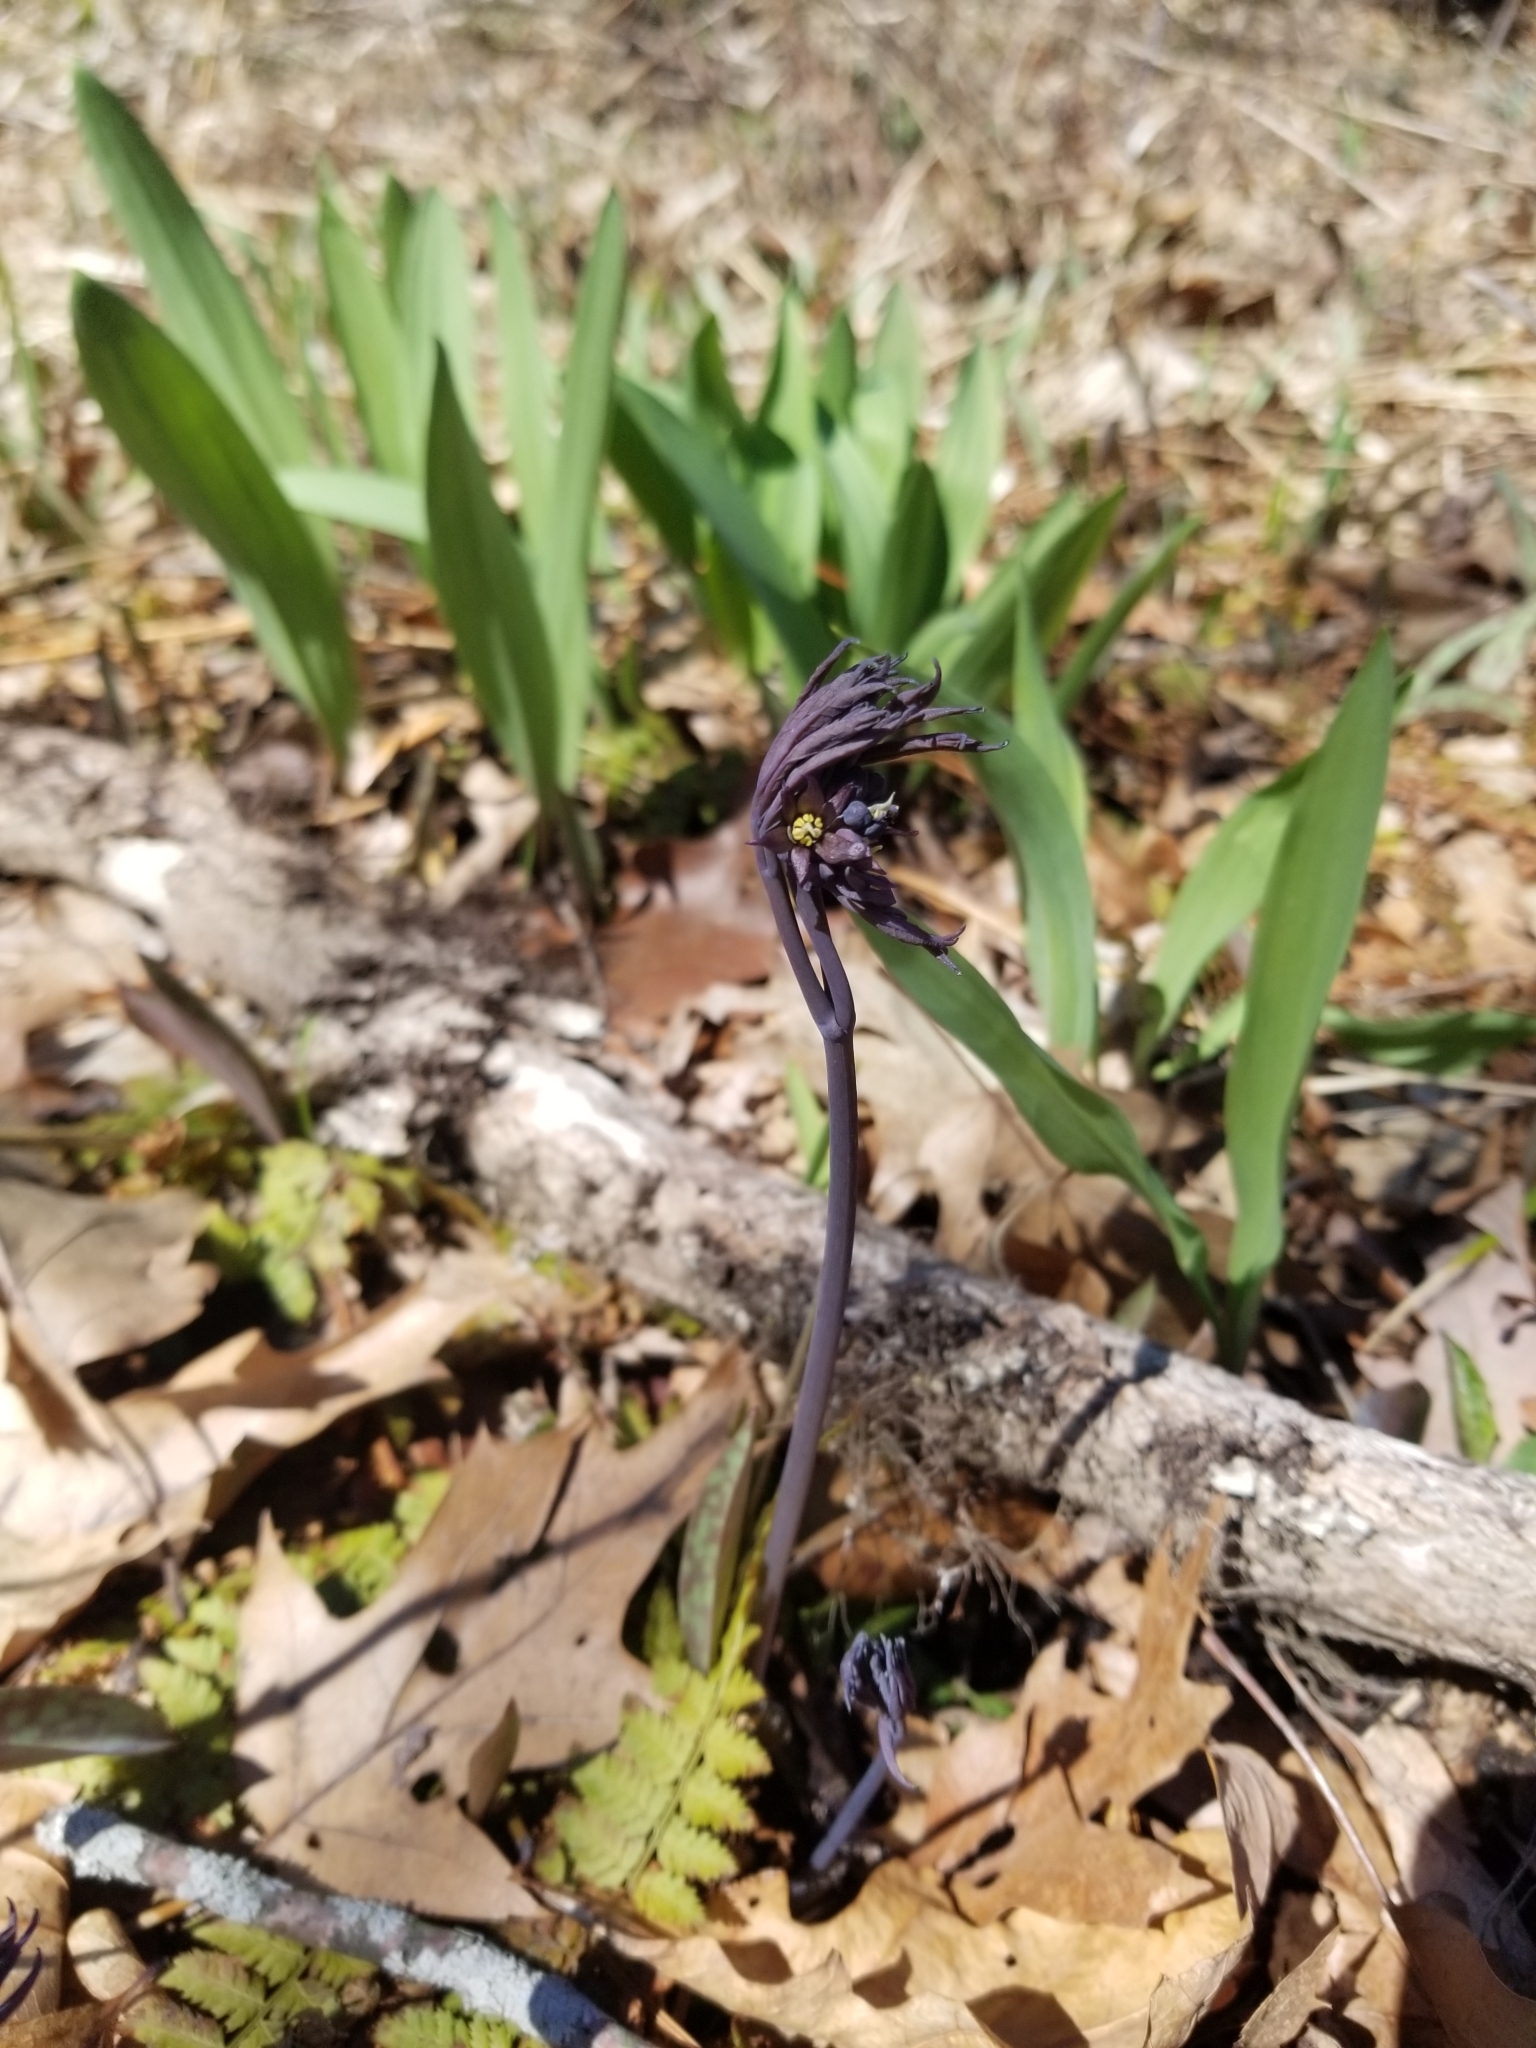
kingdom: Plantae
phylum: Tracheophyta
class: Magnoliopsida
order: Ranunculales
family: Berberidaceae
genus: Caulophyllum
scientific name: Caulophyllum thalictroides
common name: Blue cohosh
